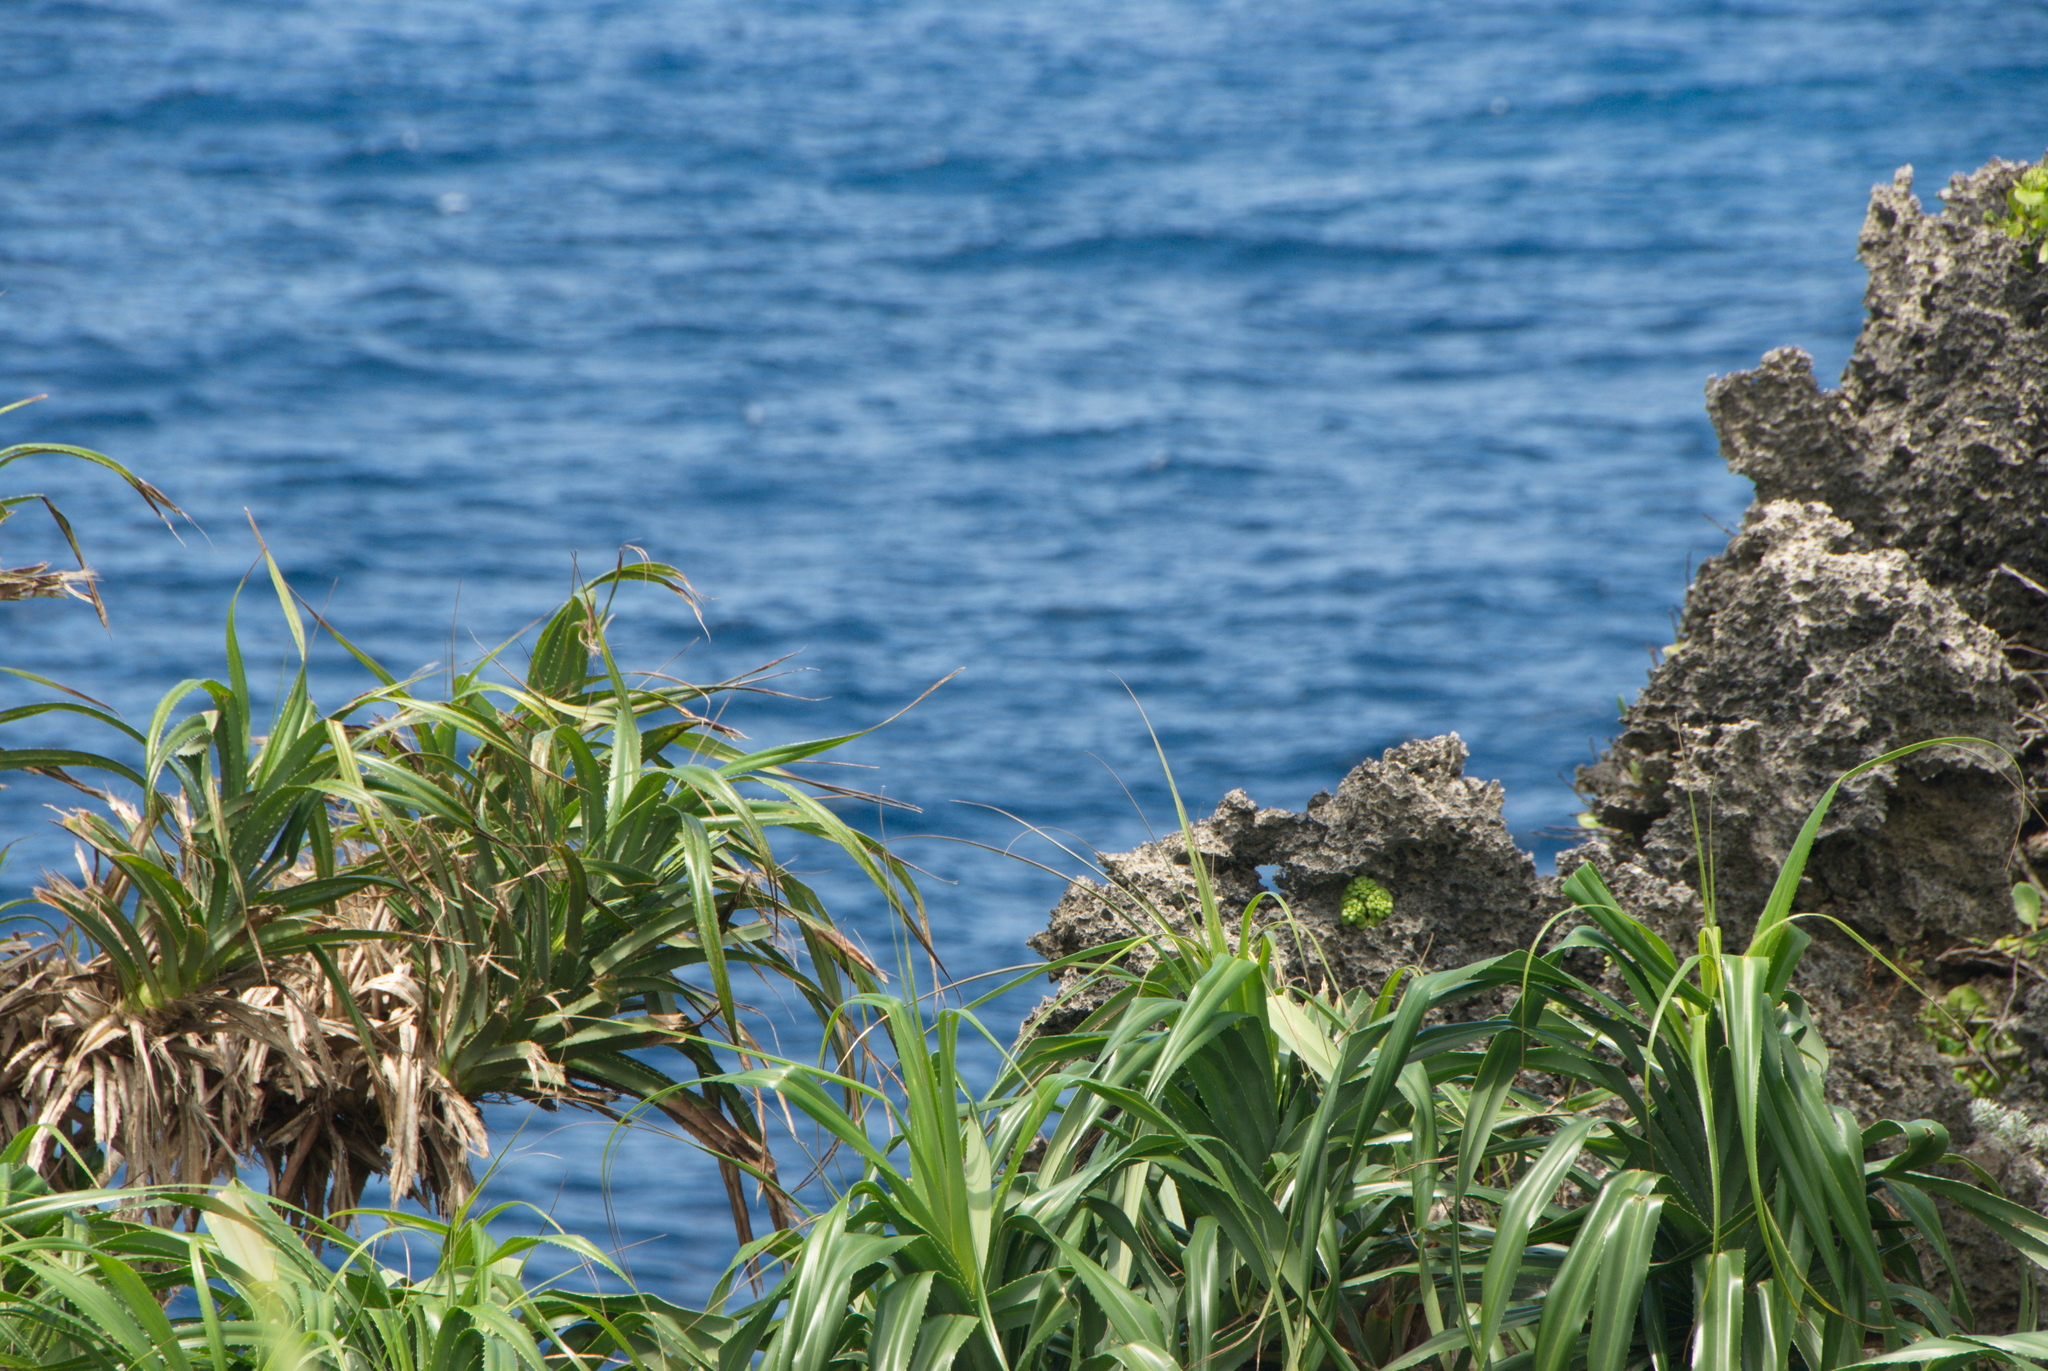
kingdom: Plantae
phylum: Tracheophyta
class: Liliopsida
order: Pandanales
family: Pandanaceae
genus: Pandanus
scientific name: Pandanus odorifer
